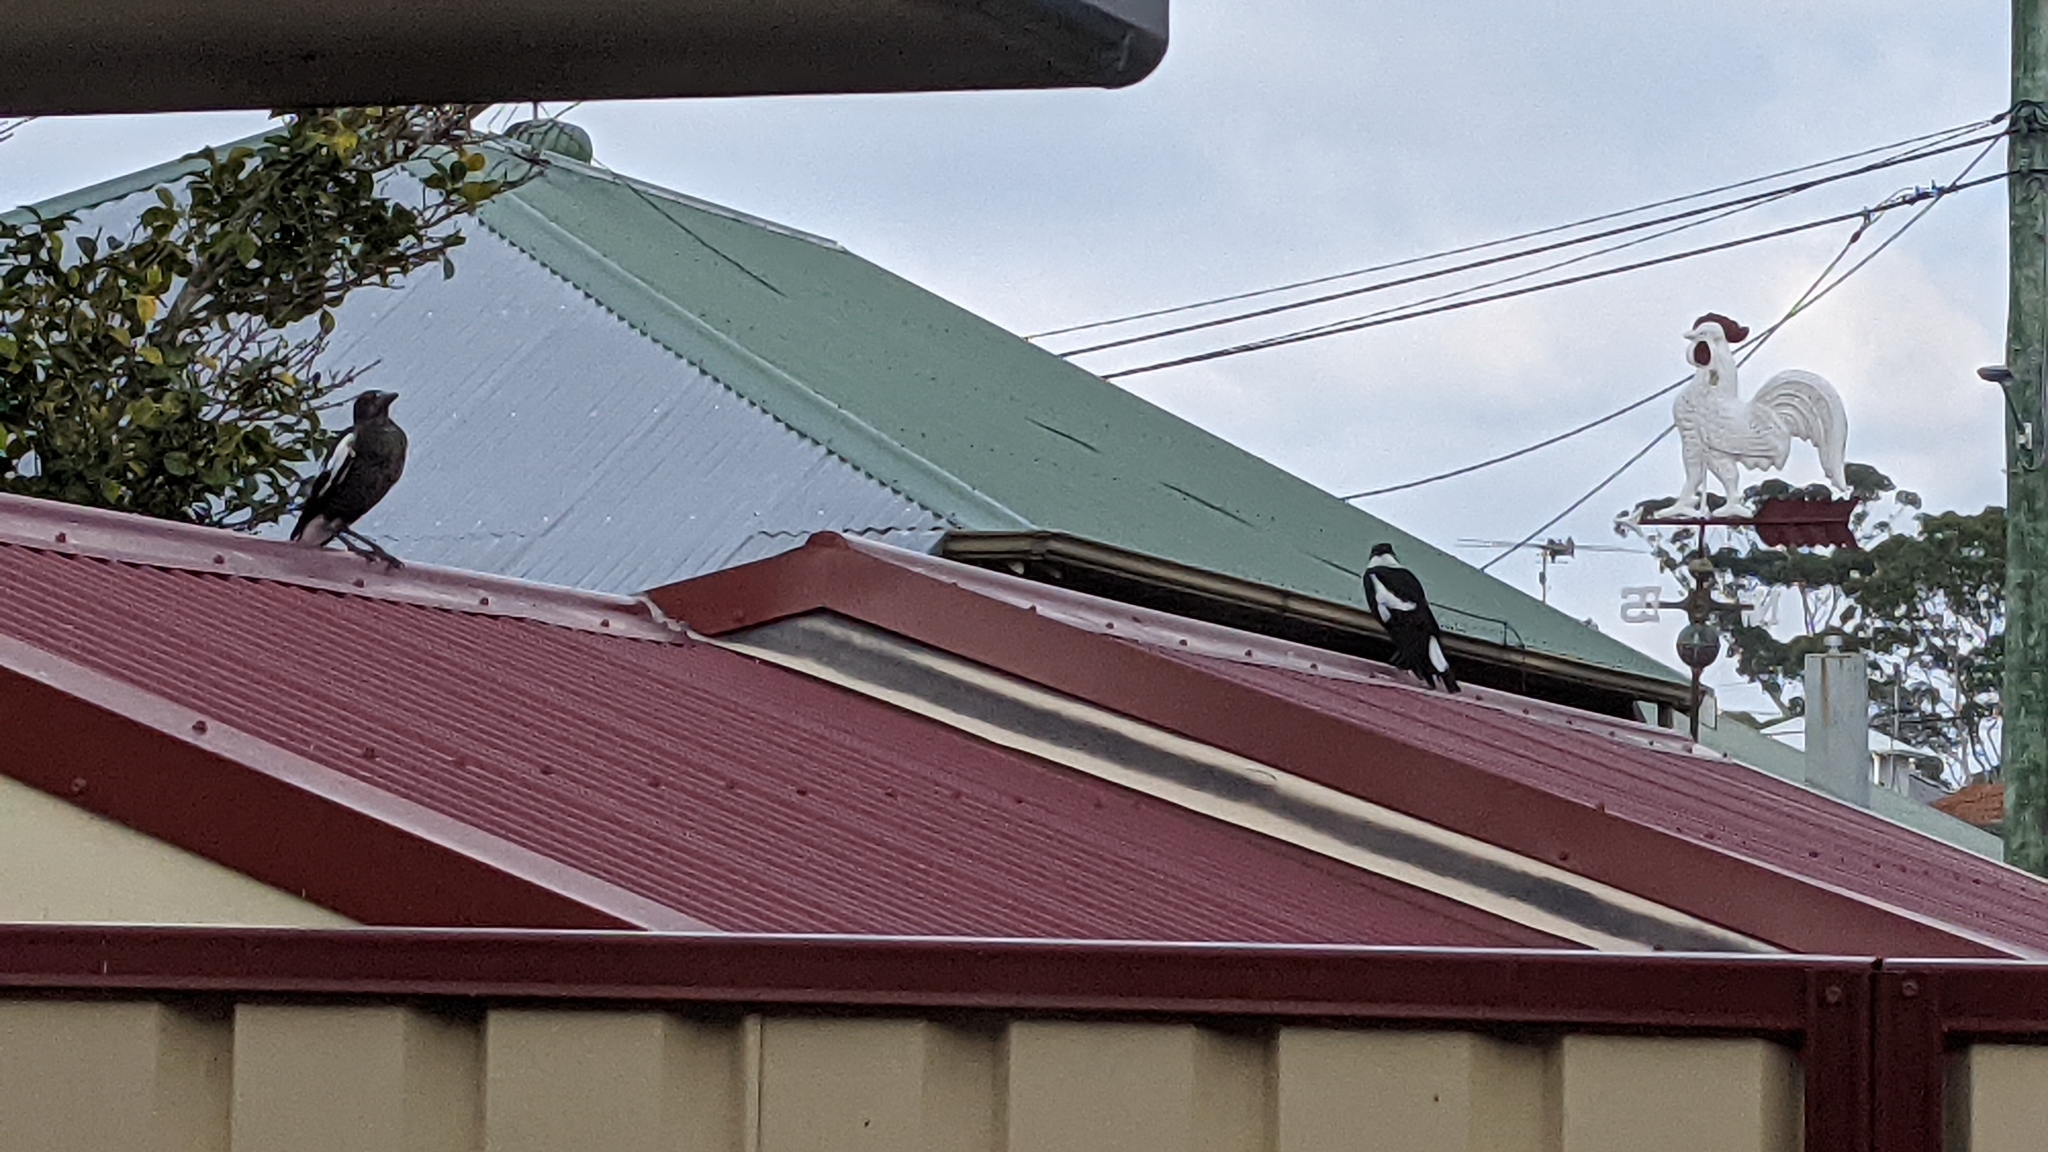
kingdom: Animalia
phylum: Chordata
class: Aves
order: Passeriformes
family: Cracticidae
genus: Gymnorhina
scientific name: Gymnorhina tibicen
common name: Australian magpie
